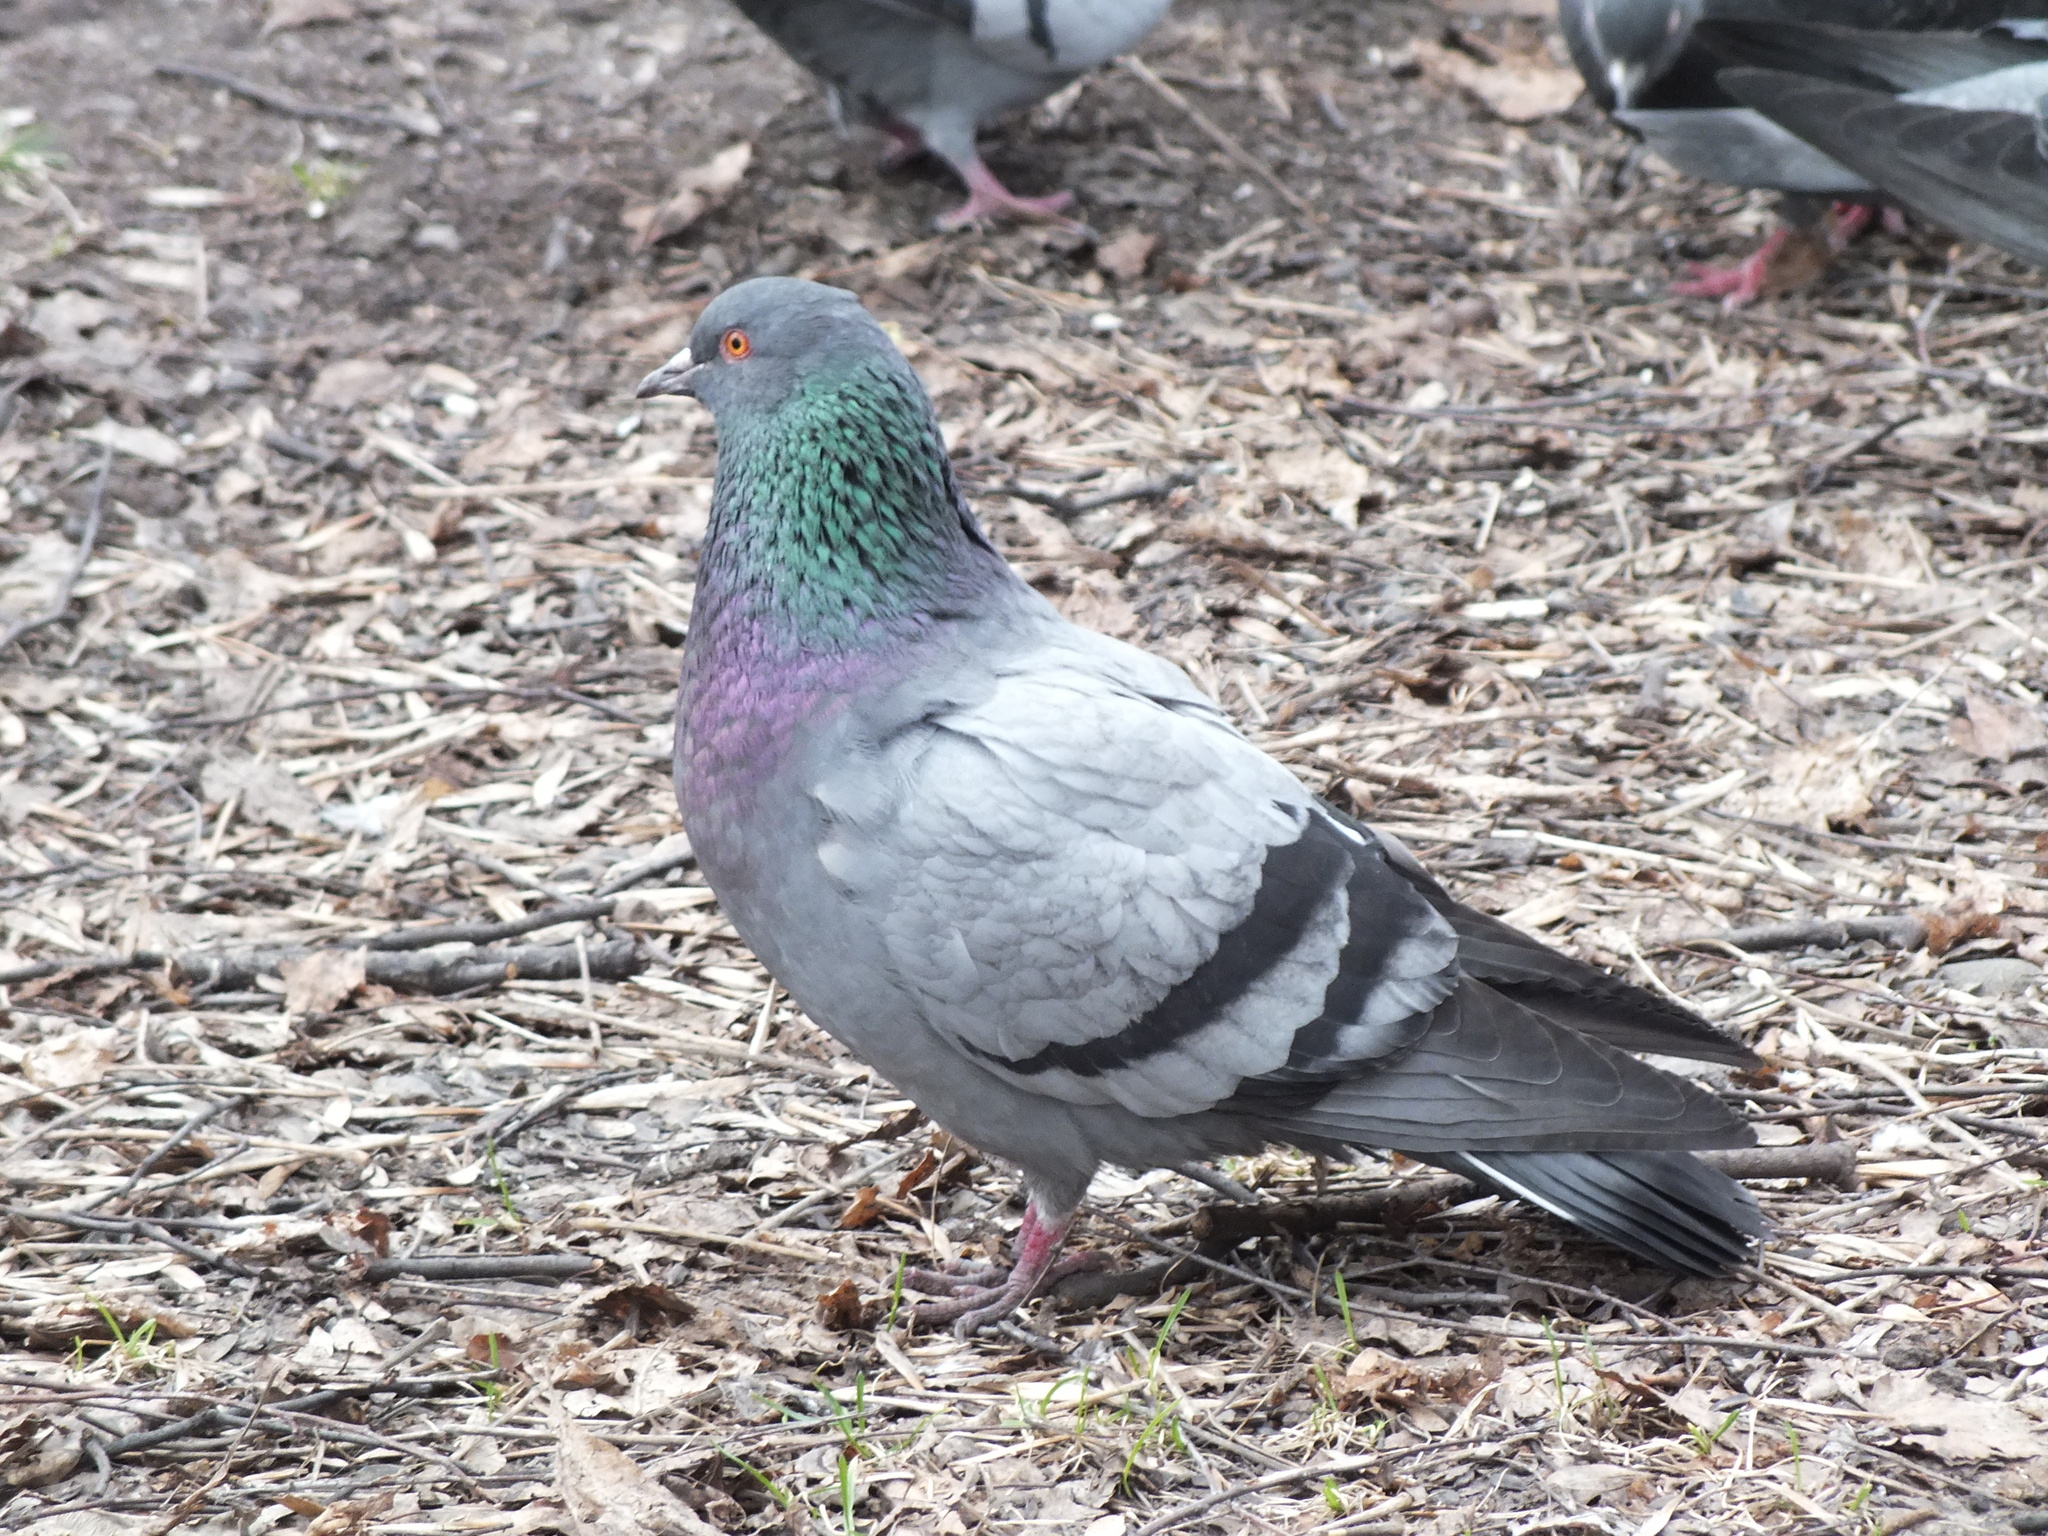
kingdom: Animalia
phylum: Chordata
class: Aves
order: Columbiformes
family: Columbidae
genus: Columba
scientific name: Columba livia
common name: Rock pigeon
